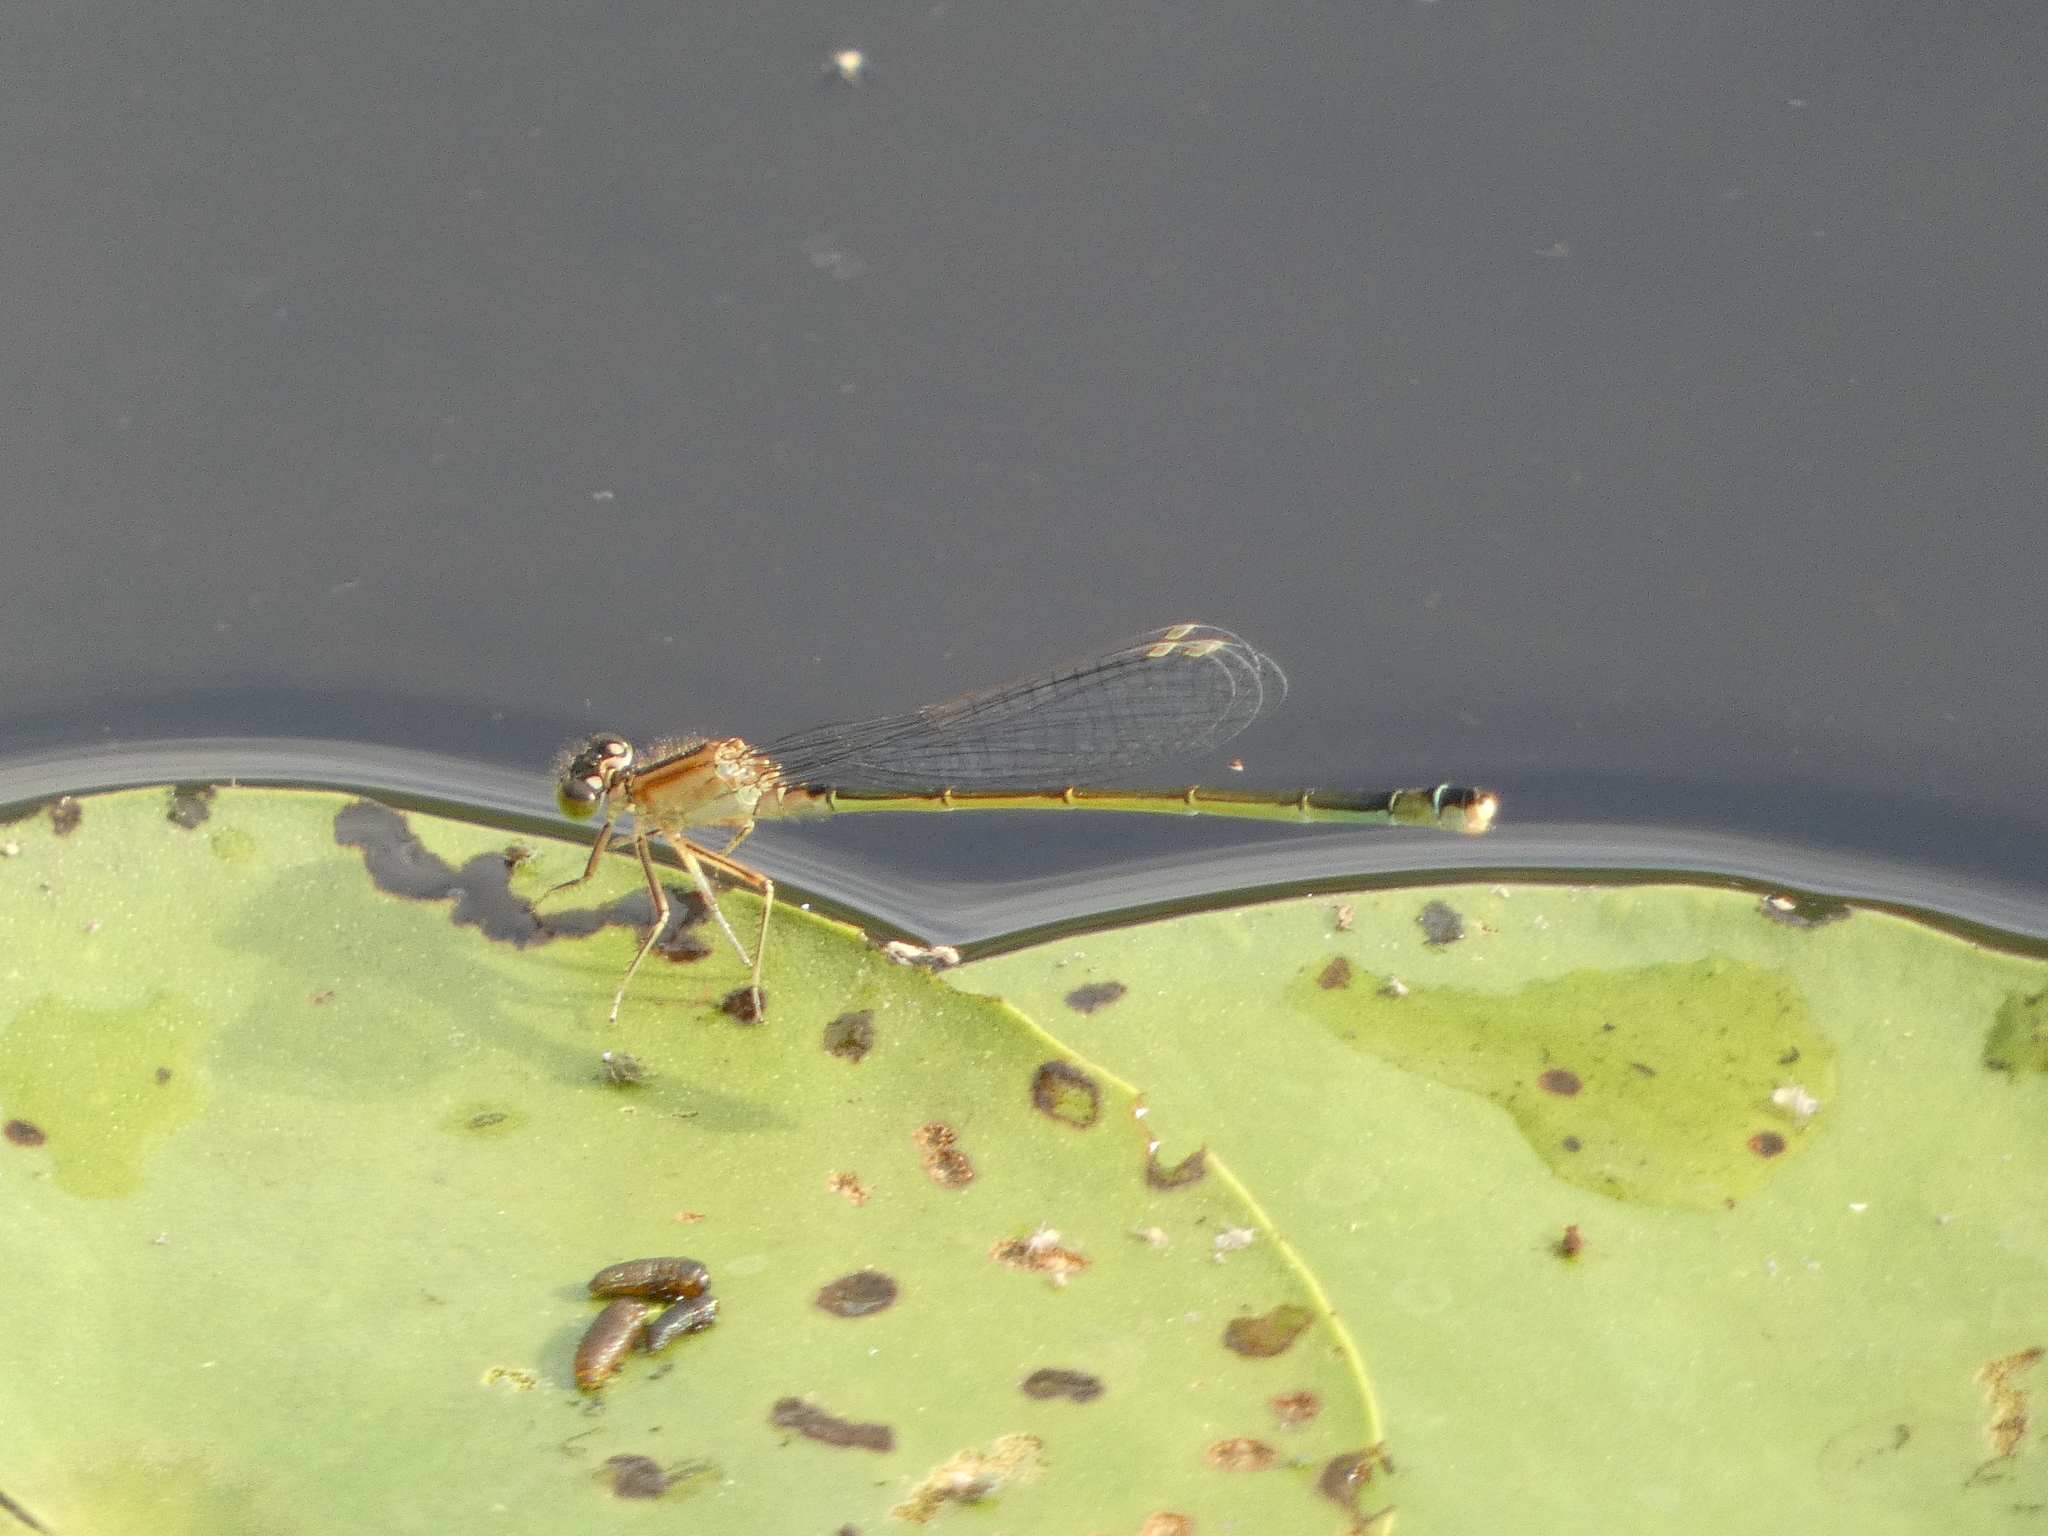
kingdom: Animalia
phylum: Arthropoda
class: Insecta
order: Odonata
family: Coenagrionidae
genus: Ischnura
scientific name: Ischnura elegans
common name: Blue-tailed damselfly
